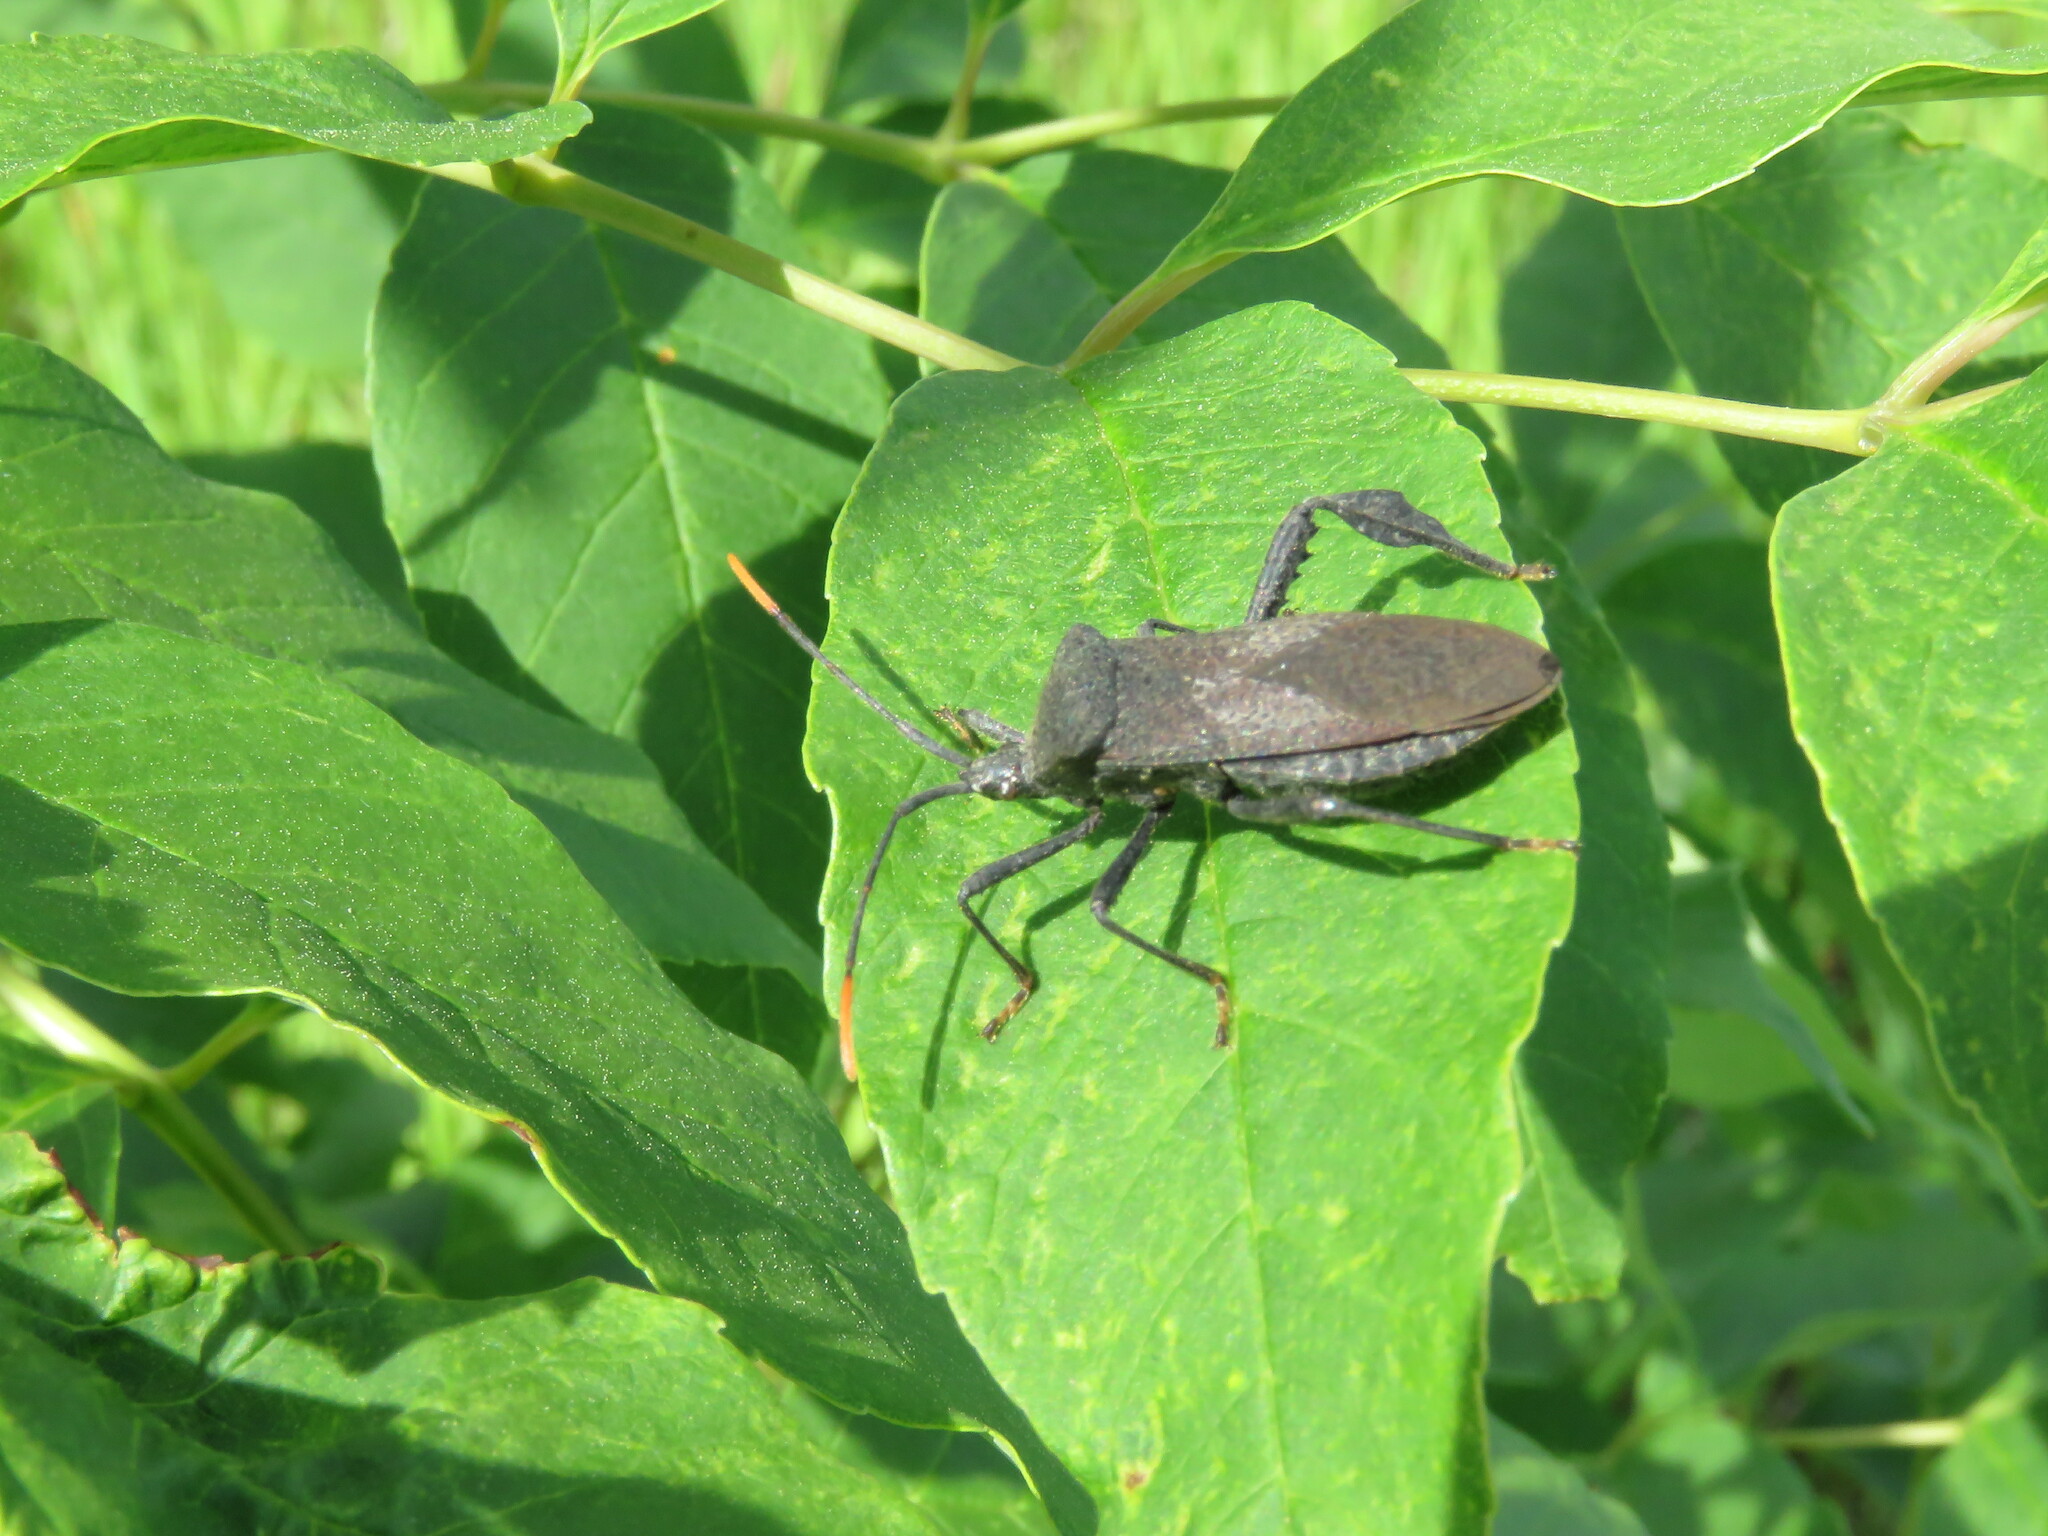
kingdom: Animalia
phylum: Arthropoda
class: Insecta
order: Hemiptera
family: Coreidae
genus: Acanthocephala
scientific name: Acanthocephala terminalis
